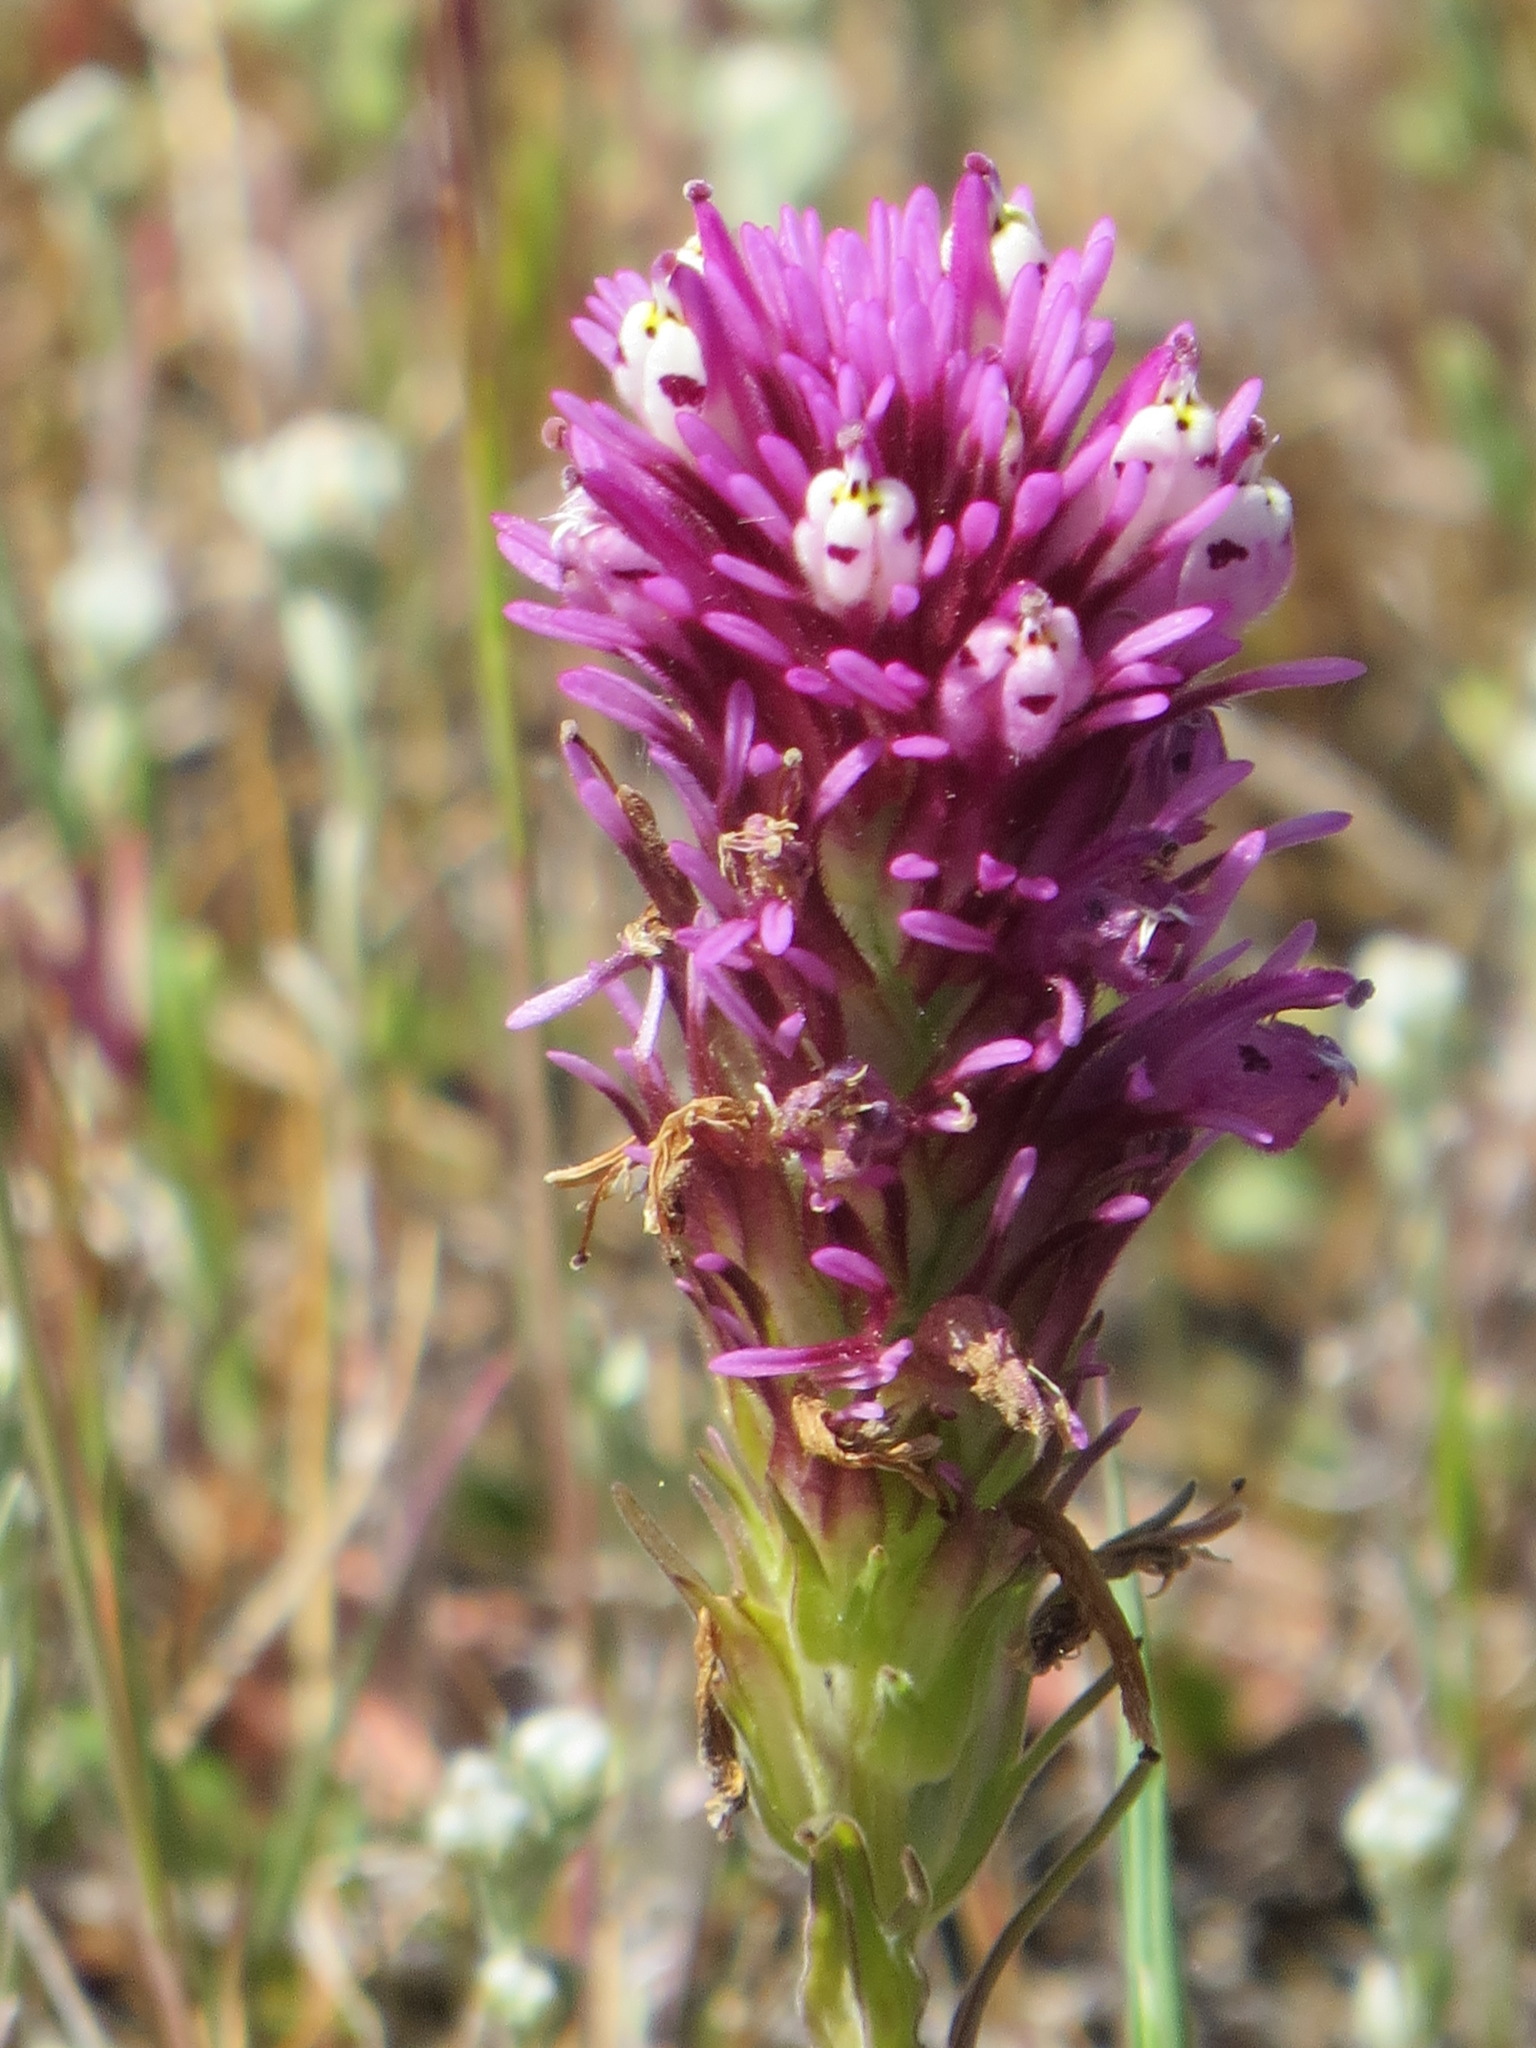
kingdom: Plantae
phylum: Tracheophyta
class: Magnoliopsida
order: Lamiales
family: Orobanchaceae
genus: Castilleja
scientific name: Castilleja densiflora
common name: Dense-flower indian paintbrush
